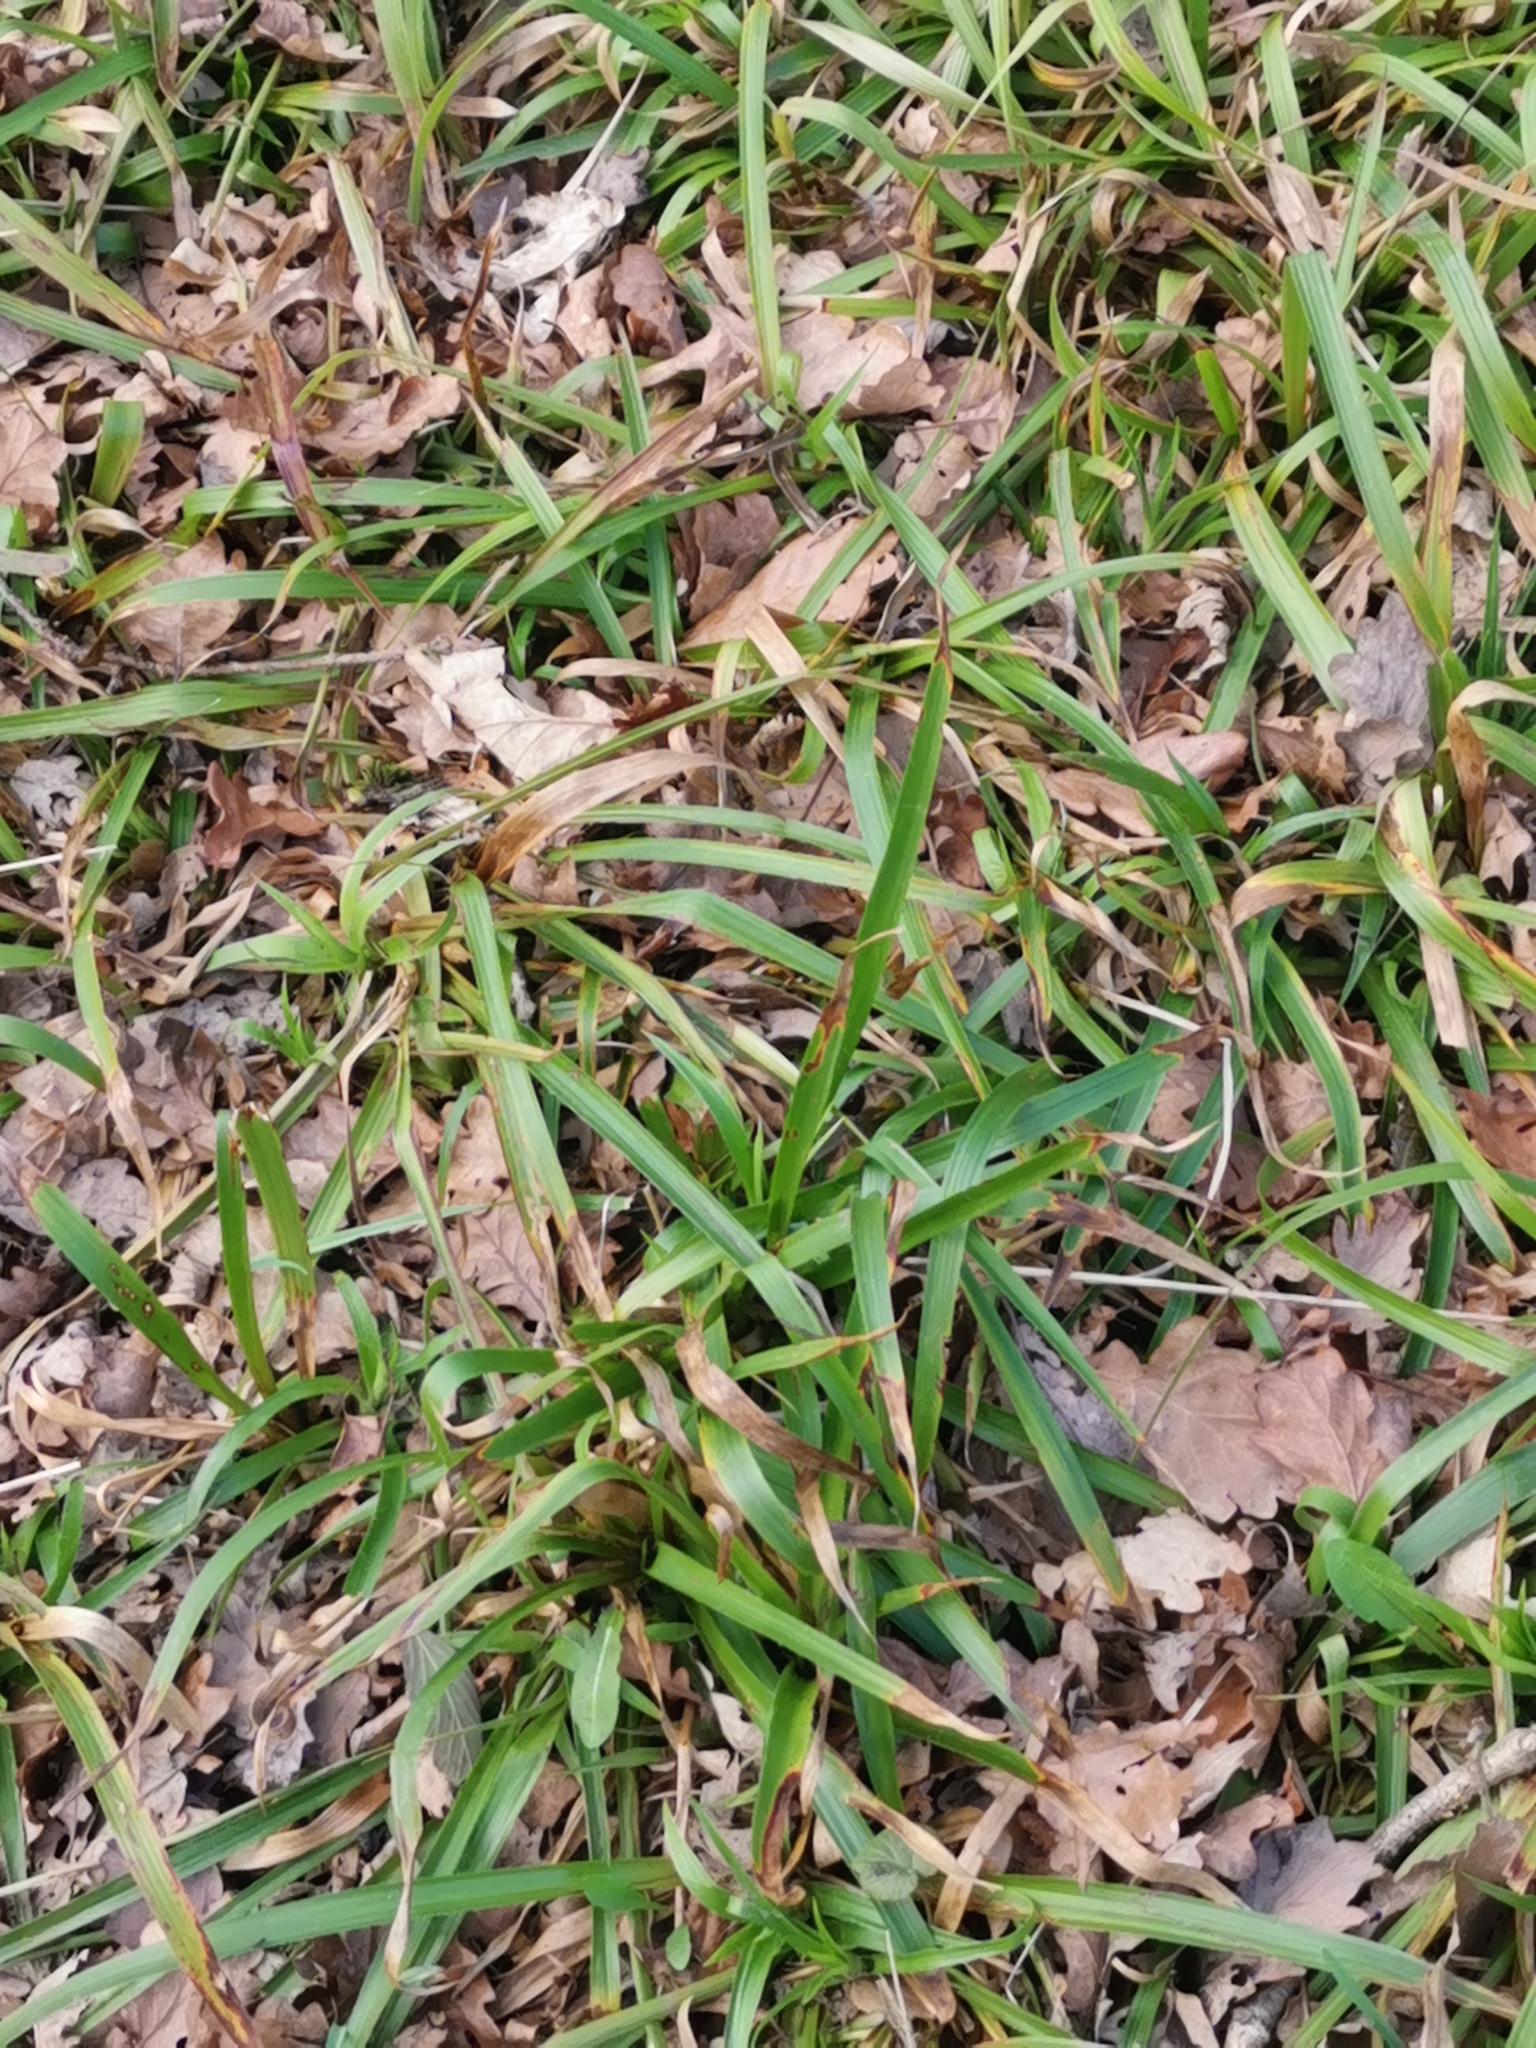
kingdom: Plantae
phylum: Tracheophyta
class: Liliopsida
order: Poales
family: Juncaceae
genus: Luzula
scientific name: Luzula sylvatica
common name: Great wood-rush
